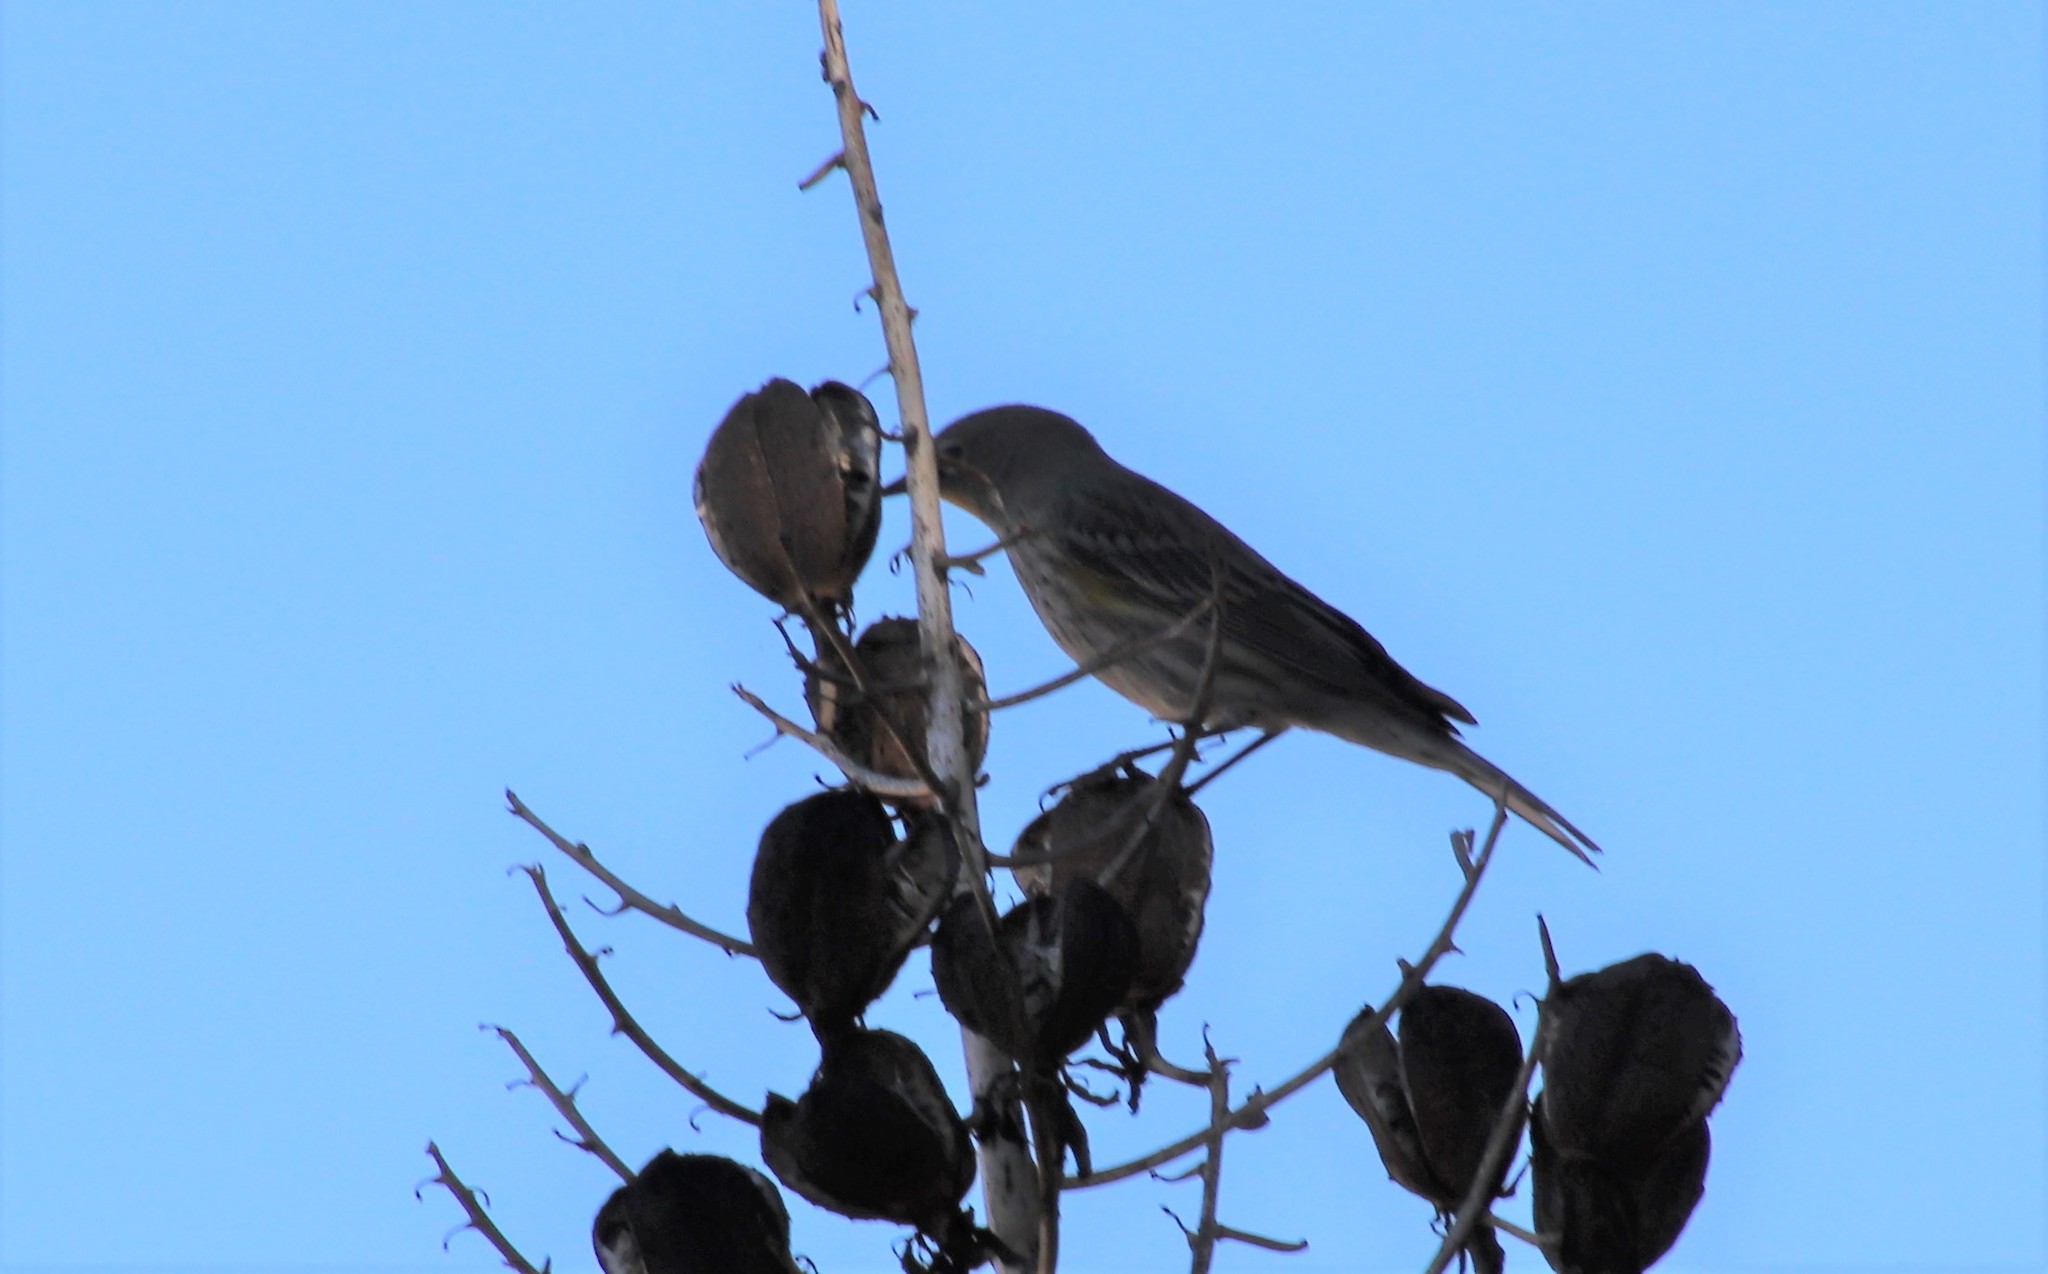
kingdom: Animalia
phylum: Chordata
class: Aves
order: Passeriformes
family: Parulidae
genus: Setophaga
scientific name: Setophaga coronata
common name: Myrtle warbler
